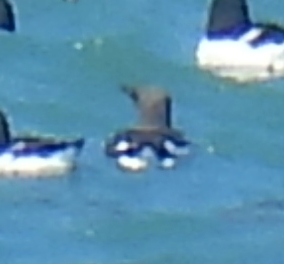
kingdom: Animalia
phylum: Chordata
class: Aves
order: Charadriiformes
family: Alcidae
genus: Uria
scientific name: Uria aalge
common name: Common murre
